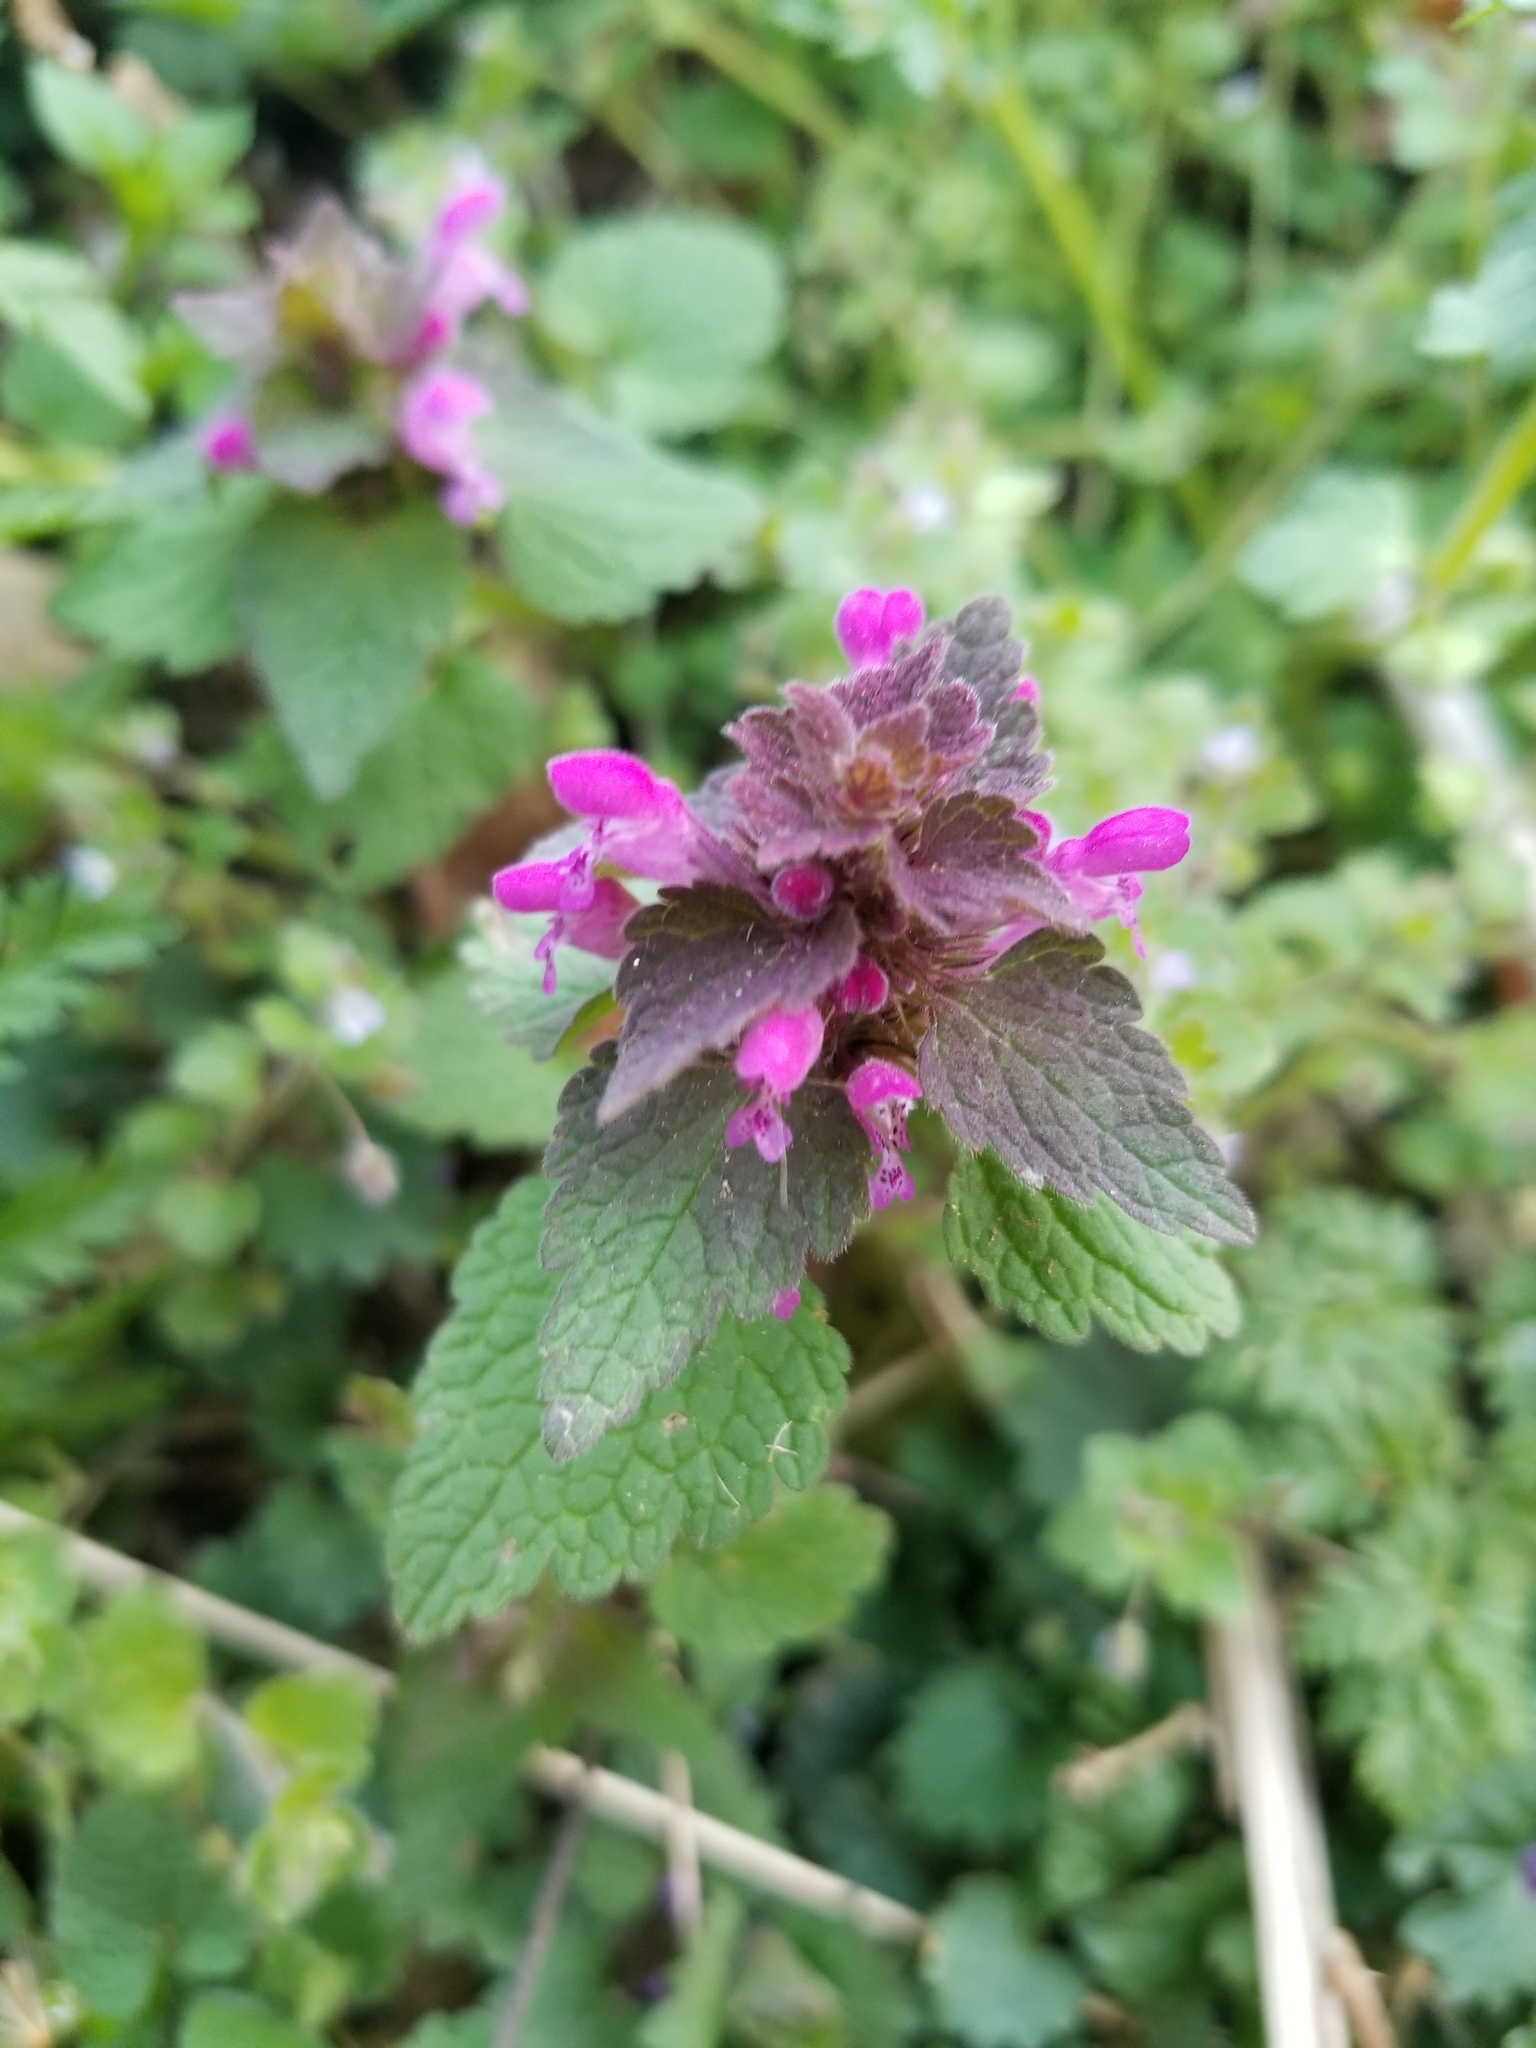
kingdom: Plantae
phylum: Tracheophyta
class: Magnoliopsida
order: Lamiales
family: Lamiaceae
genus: Lamium
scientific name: Lamium purpureum
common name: Red dead-nettle
